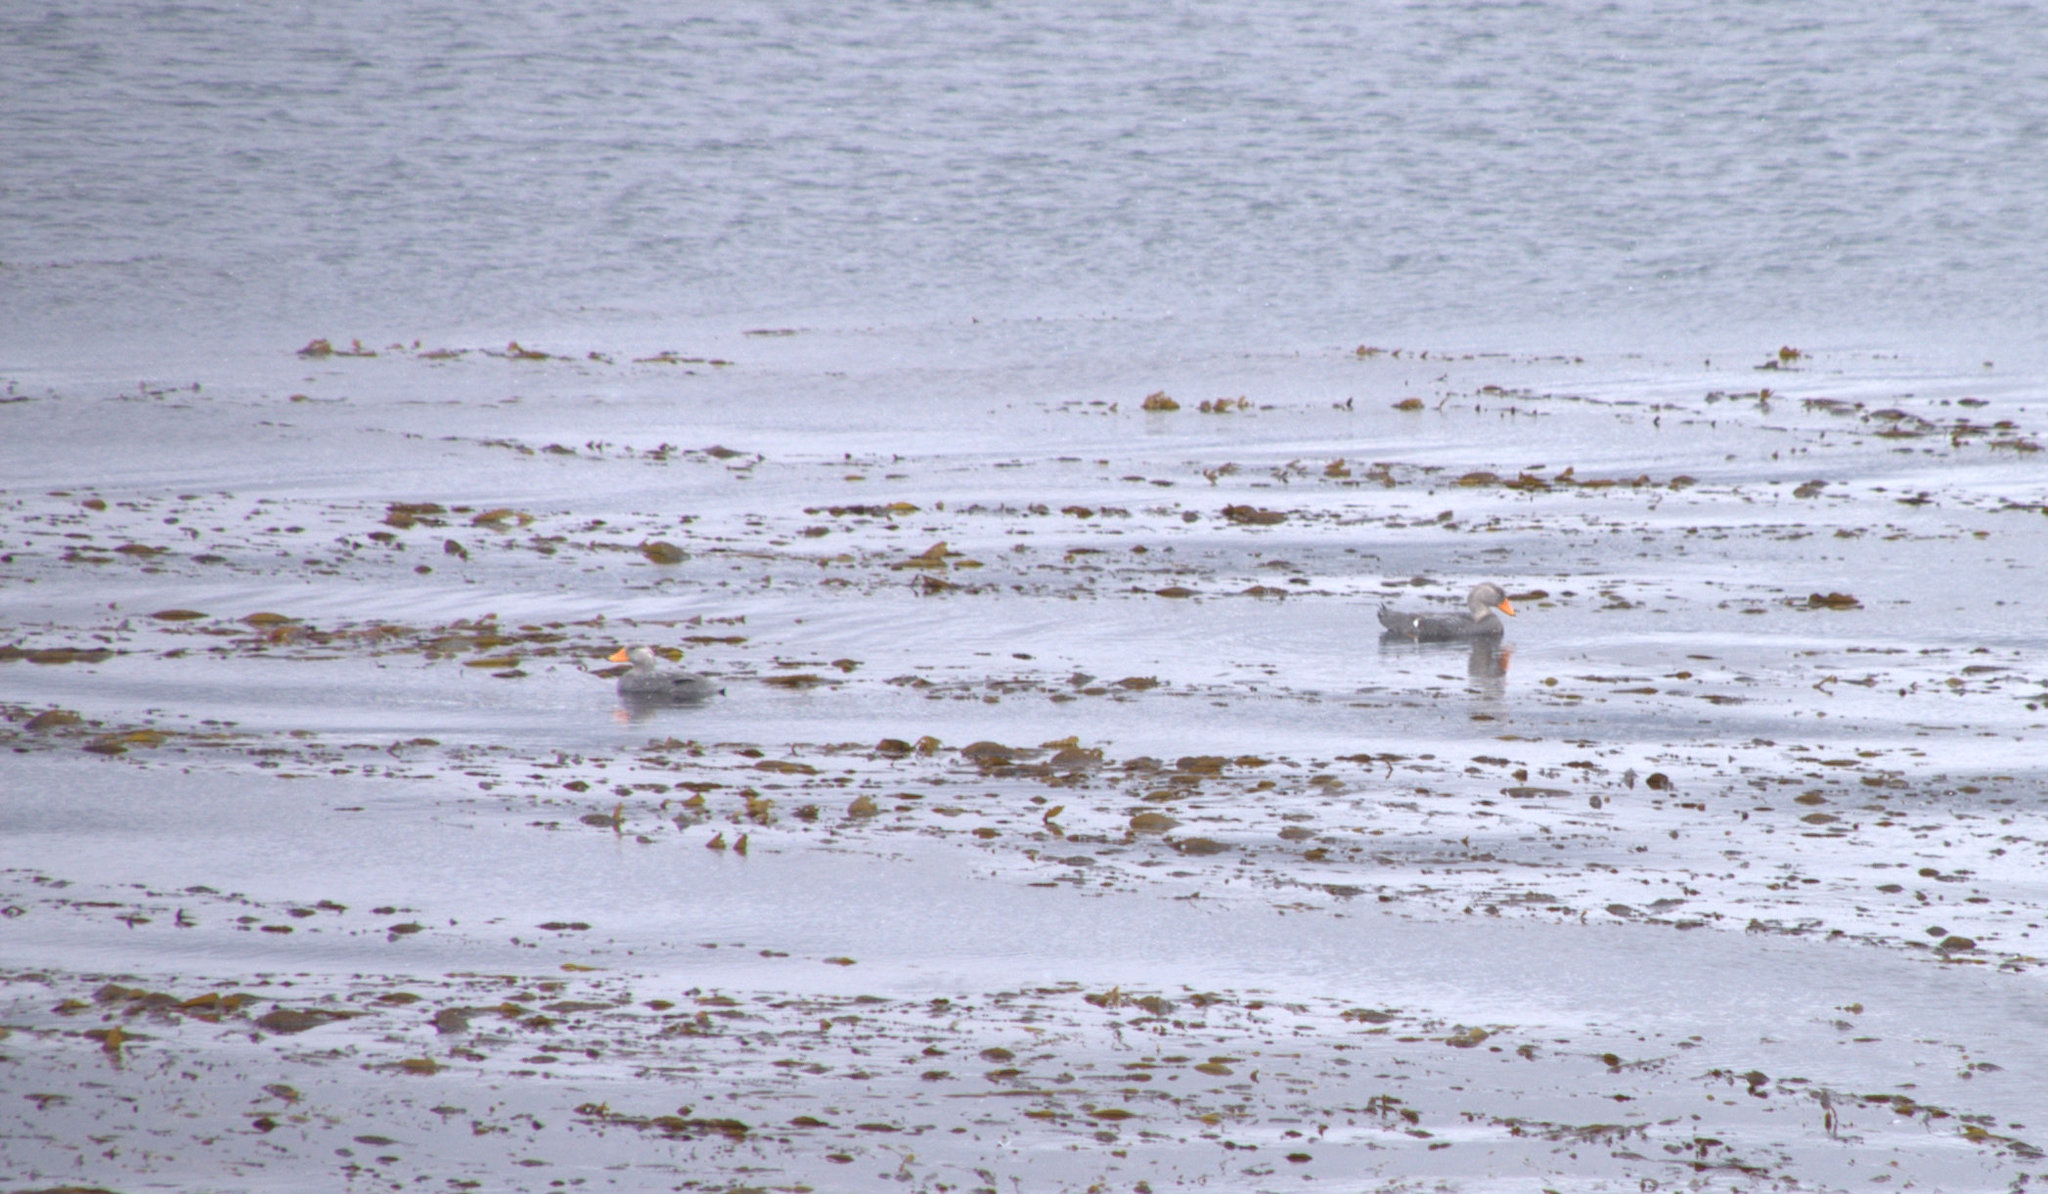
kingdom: Animalia
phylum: Chordata
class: Aves
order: Anseriformes
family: Anatidae
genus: Tachyeres
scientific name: Tachyeres pteneres
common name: Fuegian steamer duck
